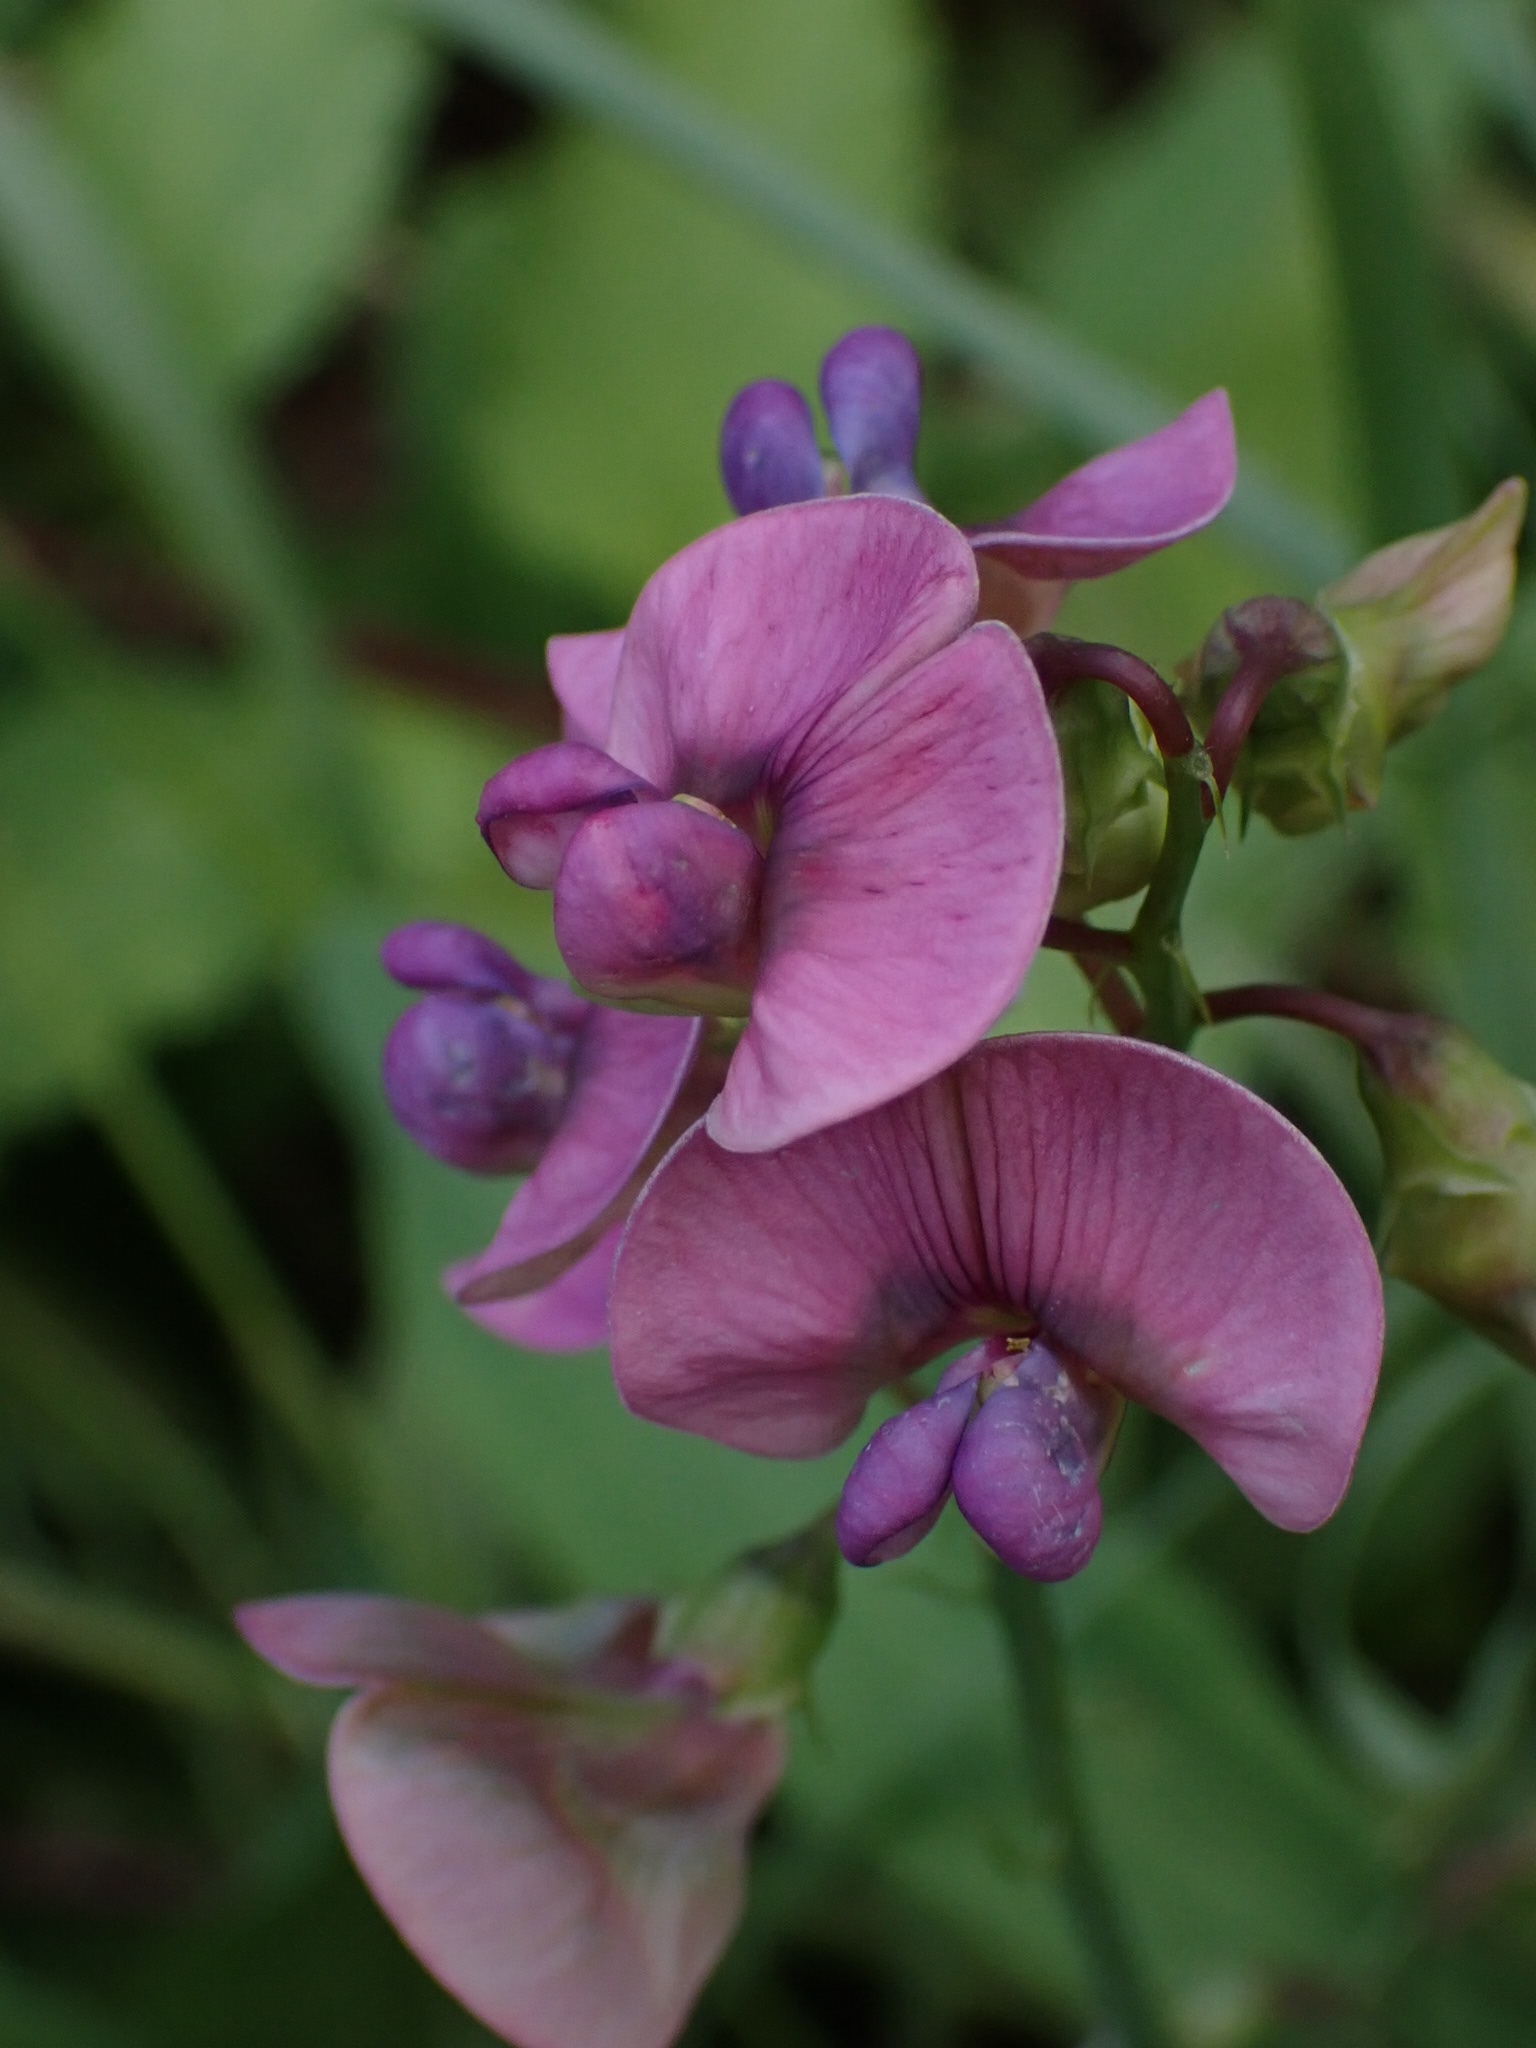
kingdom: Plantae
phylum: Tracheophyta
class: Magnoliopsida
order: Fabales
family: Fabaceae
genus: Lathyrus
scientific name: Lathyrus sylvestris
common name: Flat pea
